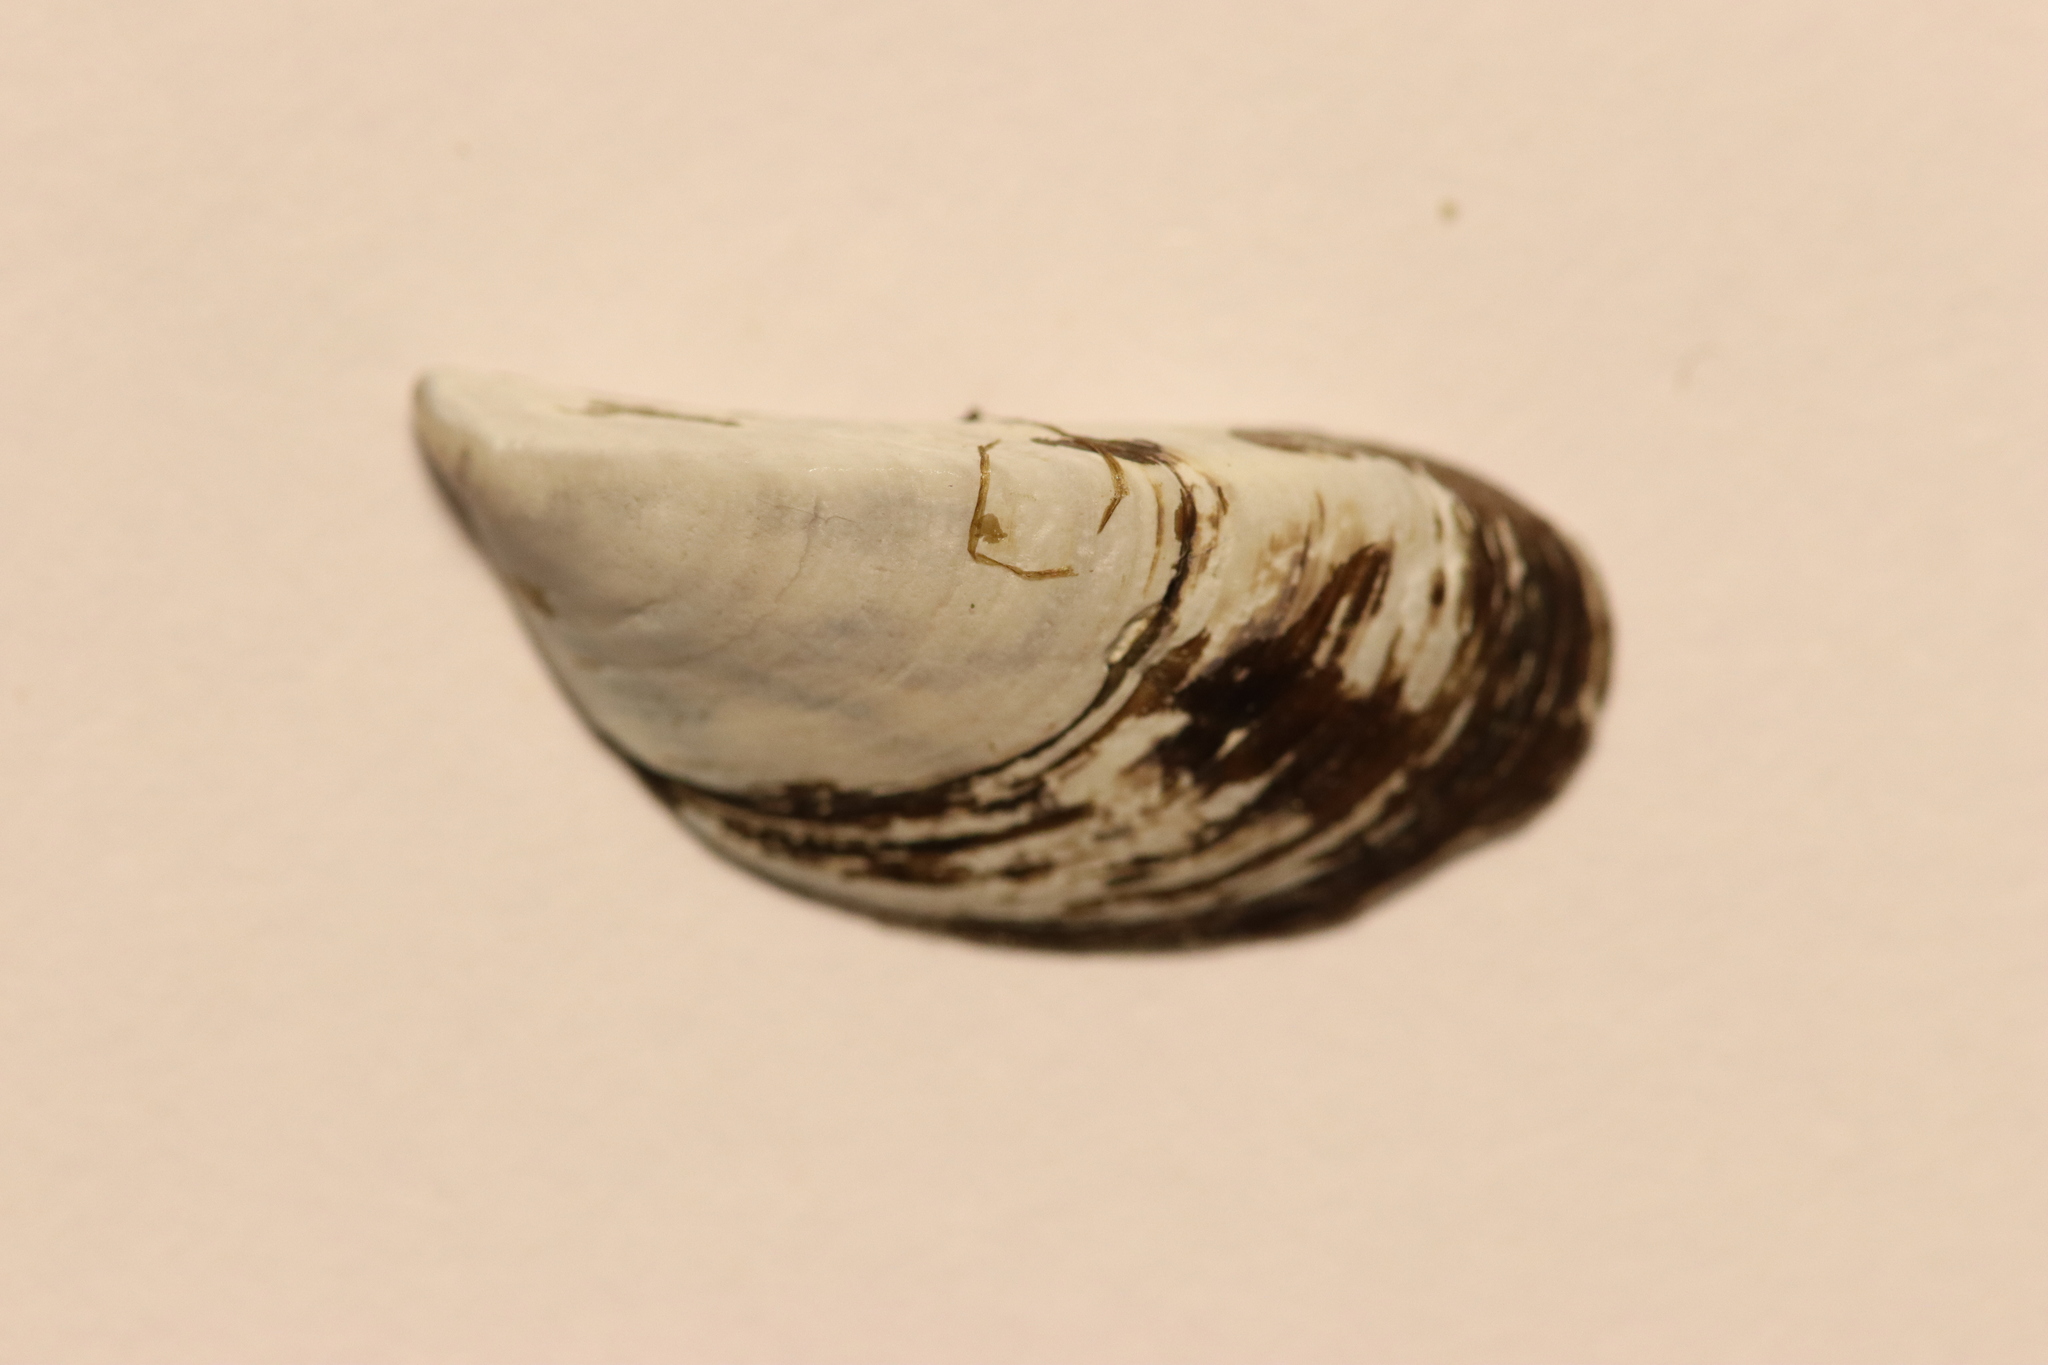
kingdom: Animalia
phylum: Mollusca
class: Bivalvia
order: Myida
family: Dreissenidae
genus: Dreissena
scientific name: Dreissena polymorpha
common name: Zebra mussel
